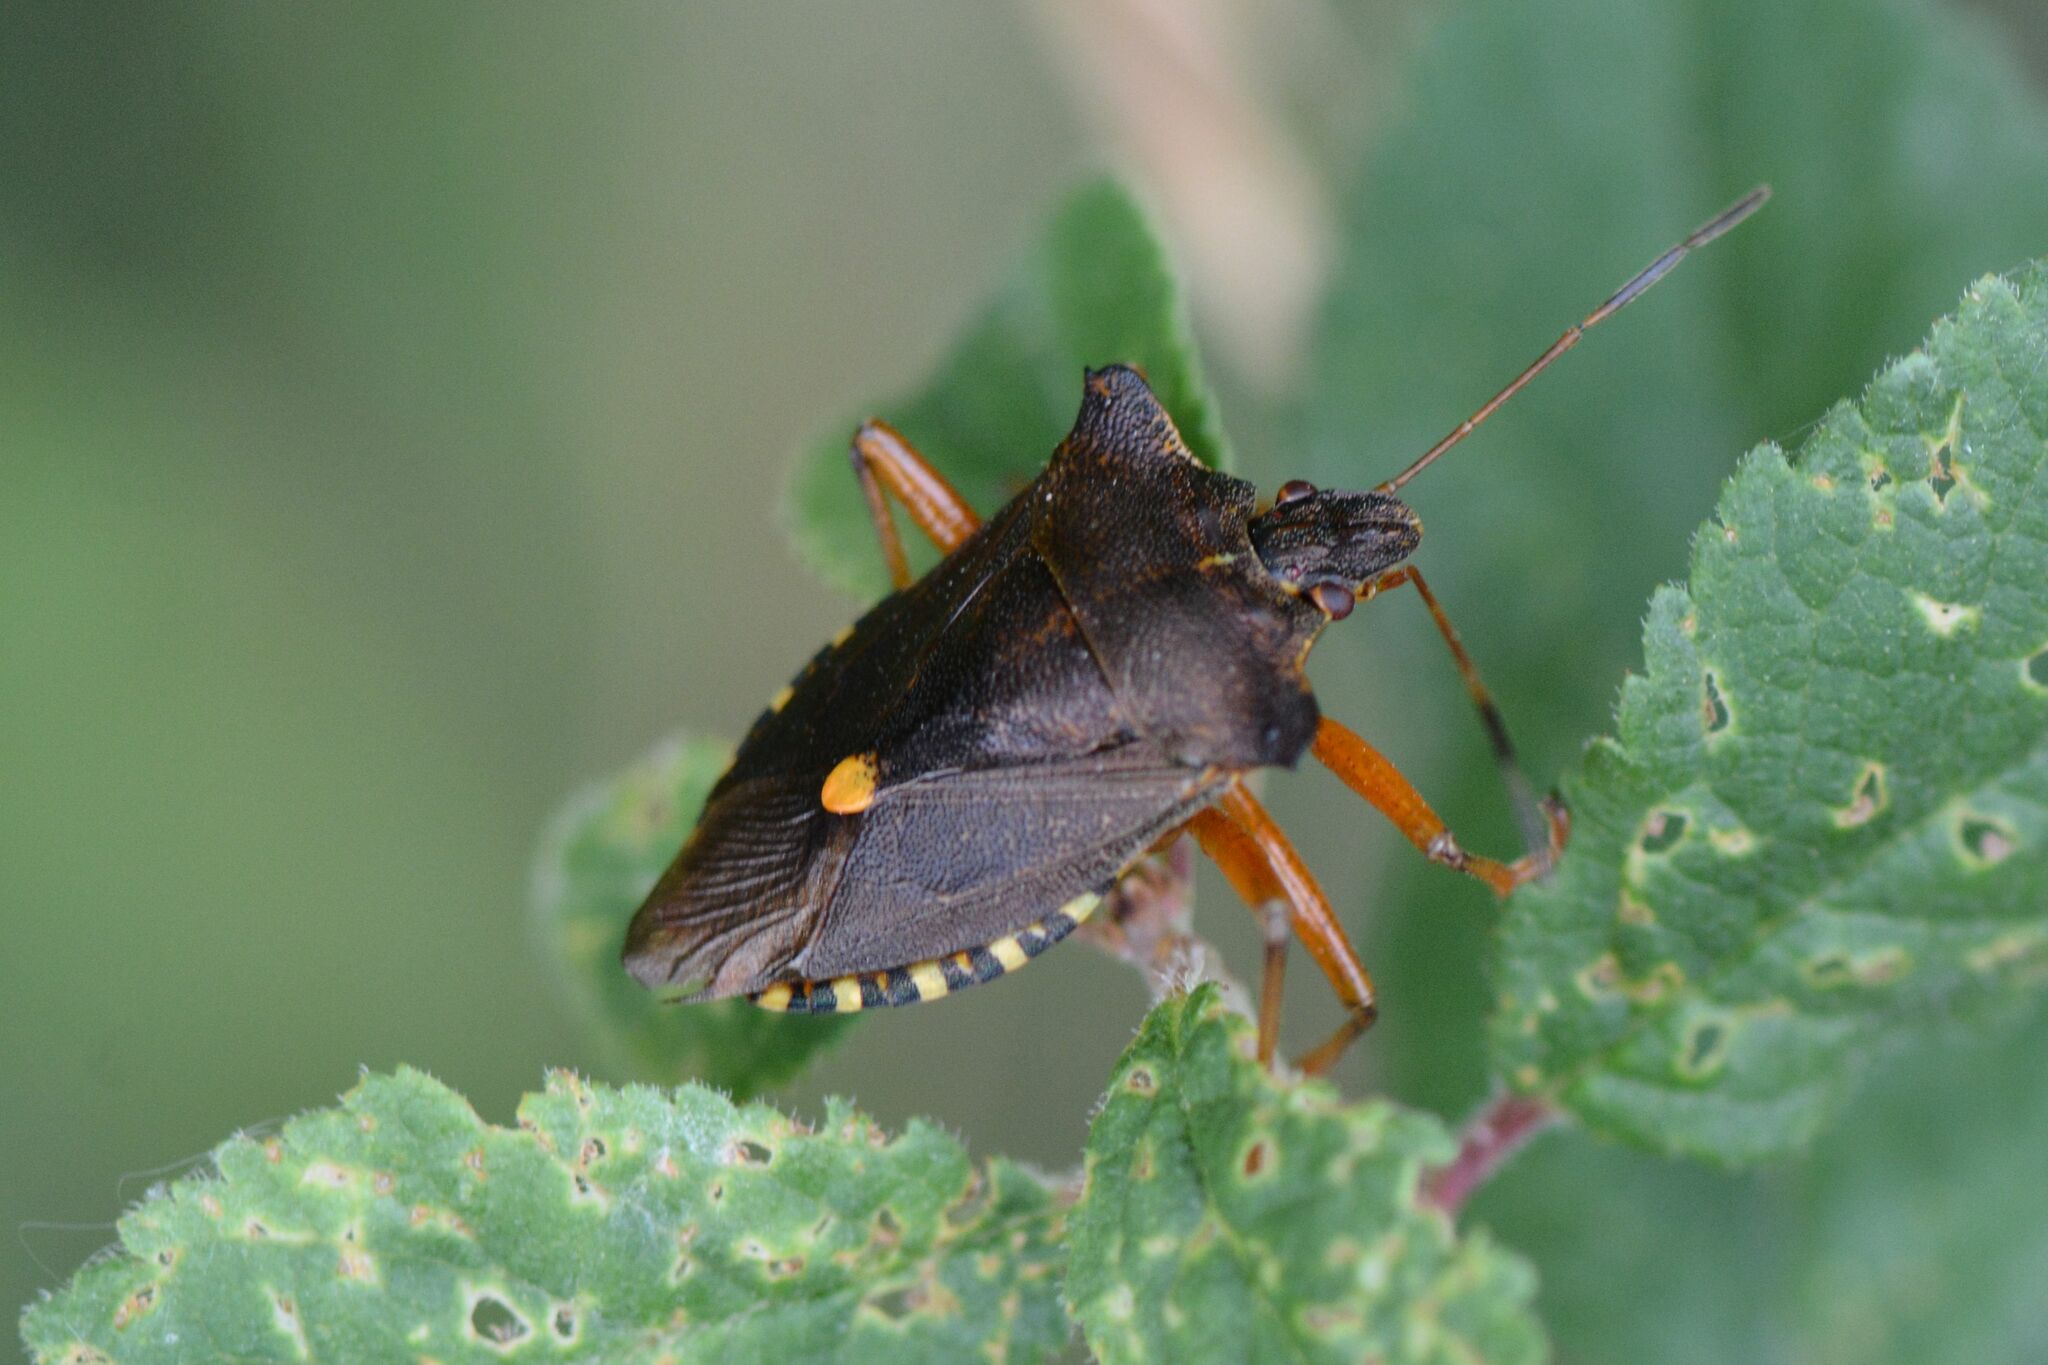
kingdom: Animalia
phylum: Arthropoda
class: Insecta
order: Hemiptera
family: Pentatomidae
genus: Pentatoma
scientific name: Pentatoma rufipes
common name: Forest bug
